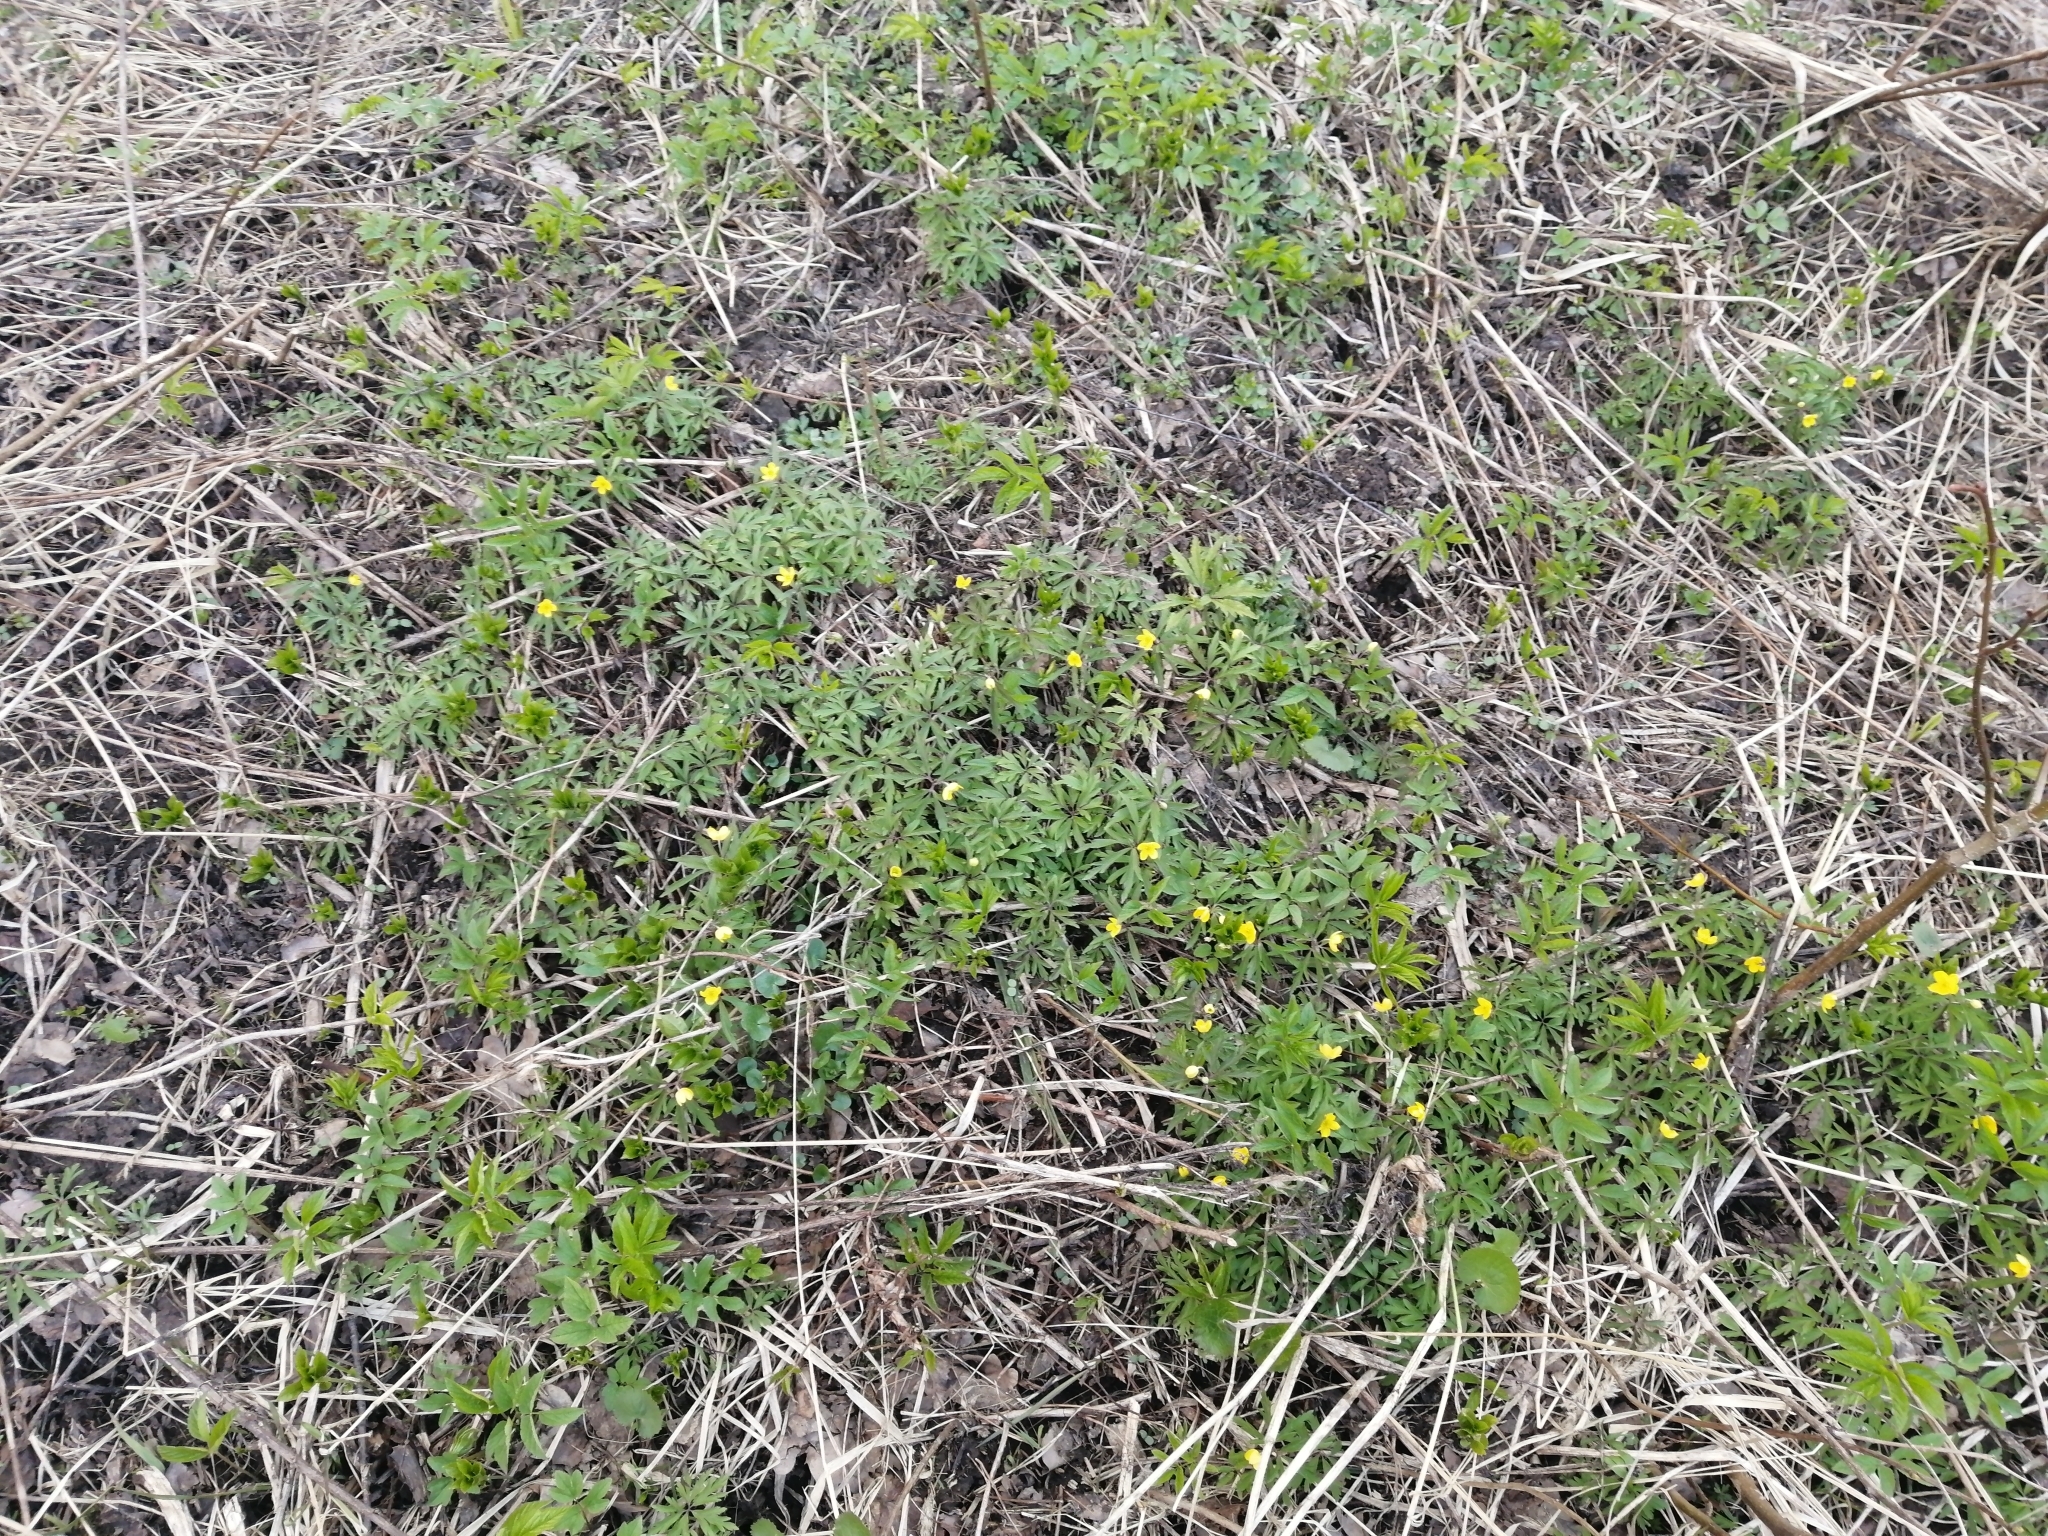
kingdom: Plantae
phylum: Tracheophyta
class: Magnoliopsida
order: Ranunculales
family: Ranunculaceae
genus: Anemone
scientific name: Anemone ranunculoides
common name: Yellow anemone
